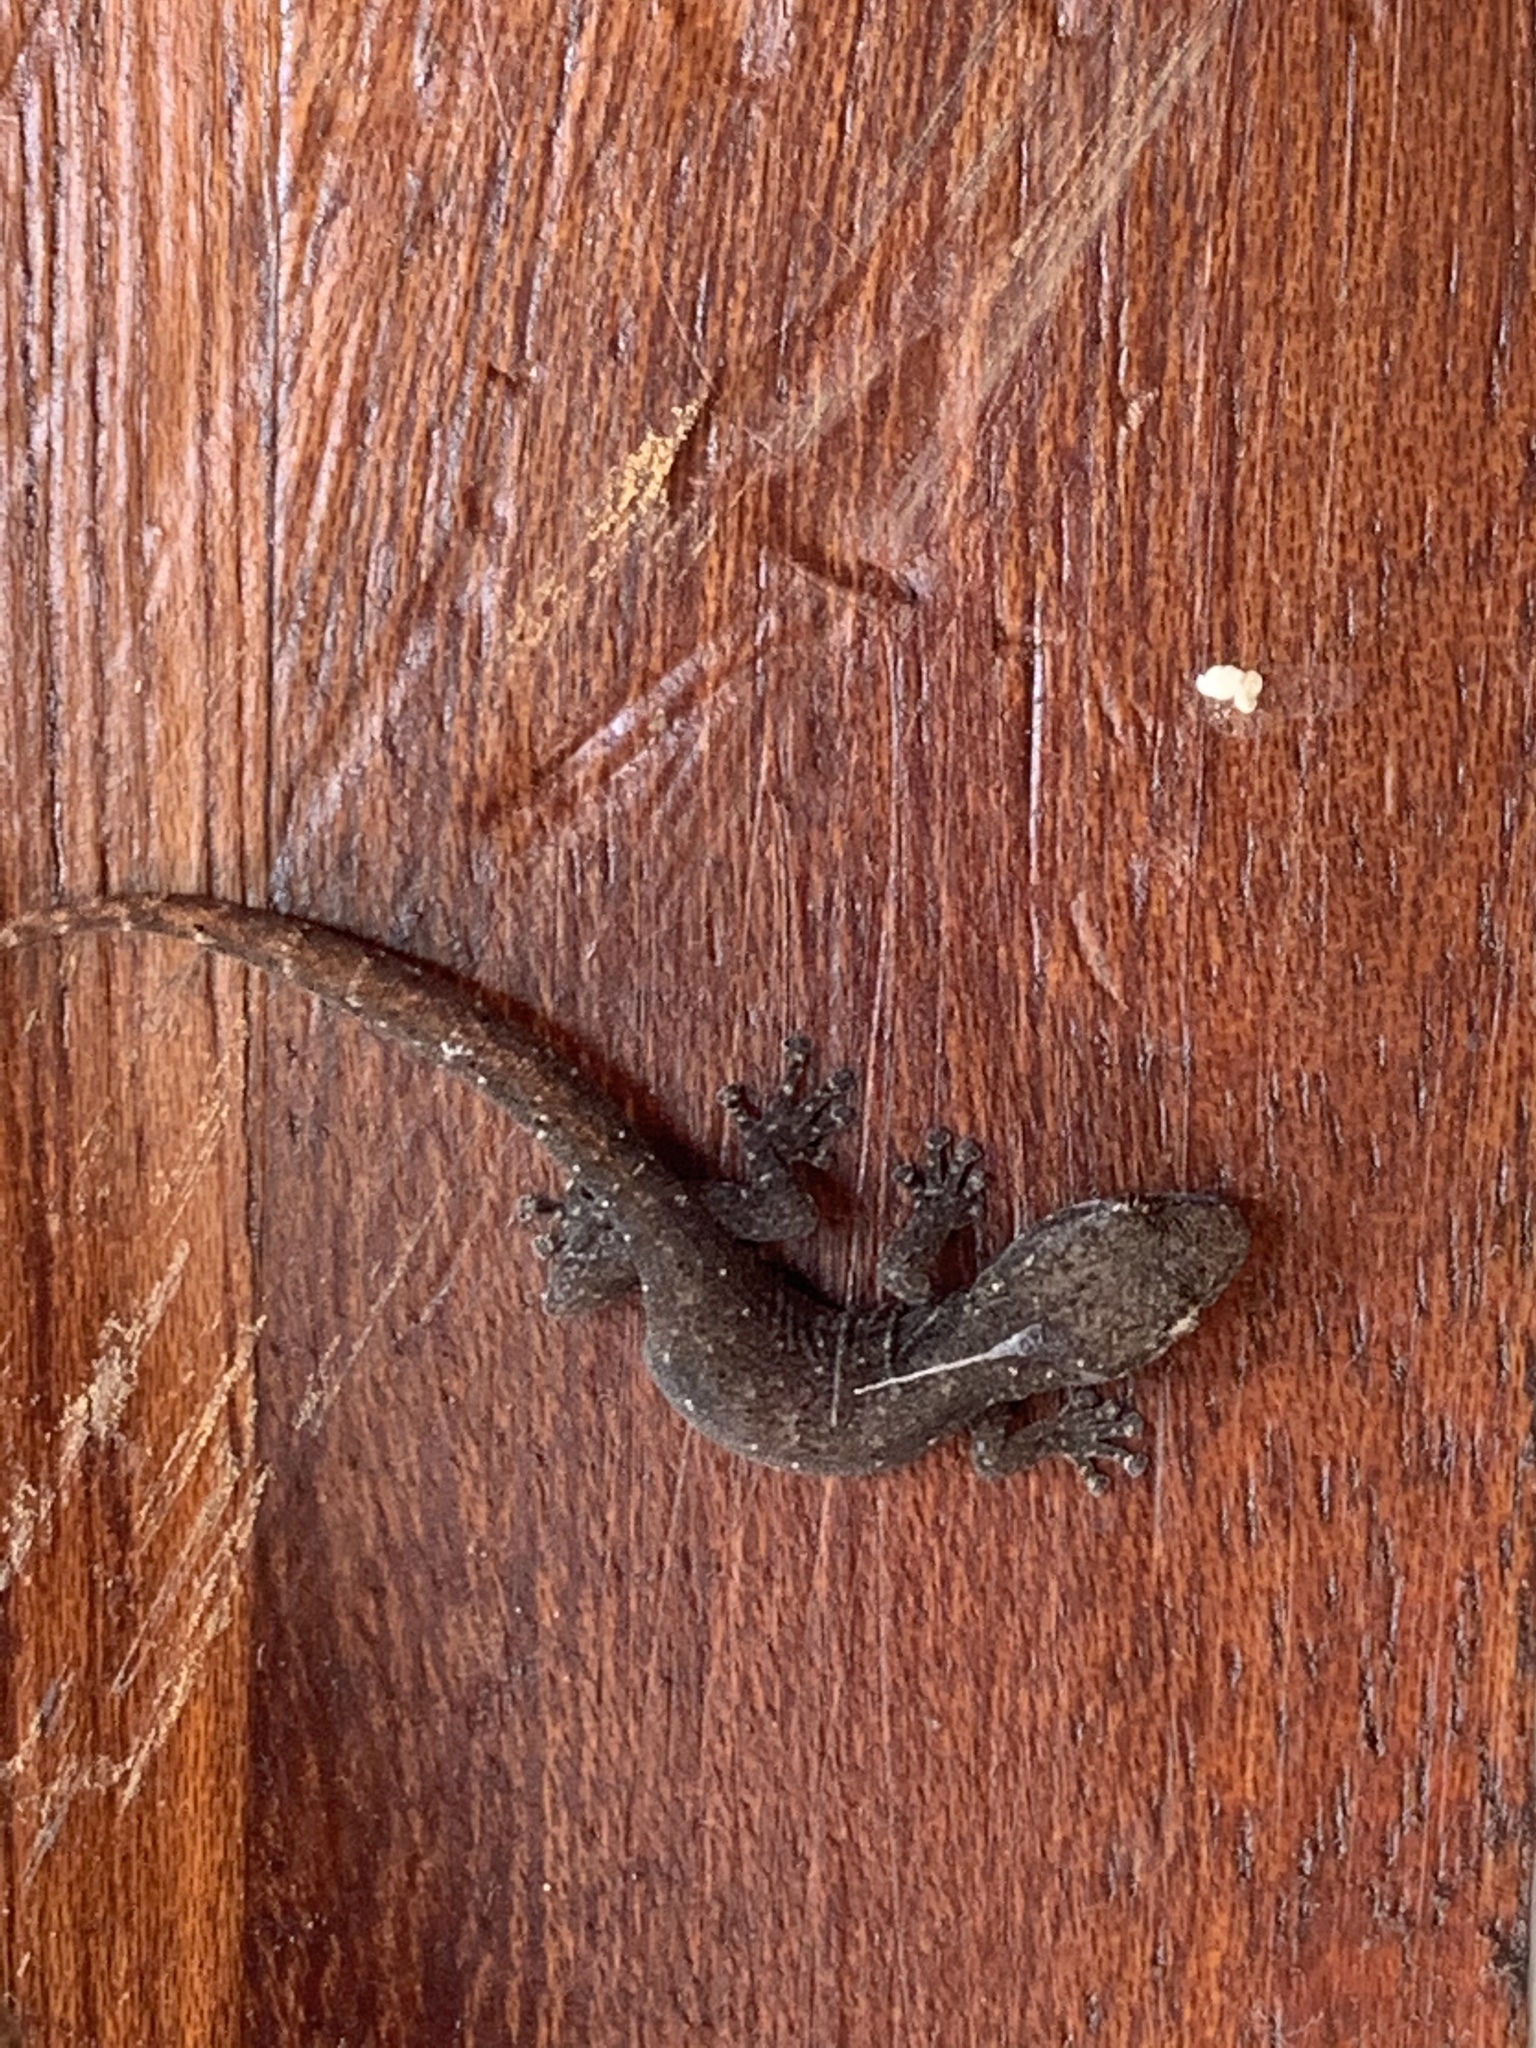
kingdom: Animalia
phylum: Chordata
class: Squamata
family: Gekkonidae
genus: Afrogecko
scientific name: Afrogecko porphyreus
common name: Marbled leaf-toed gecko
